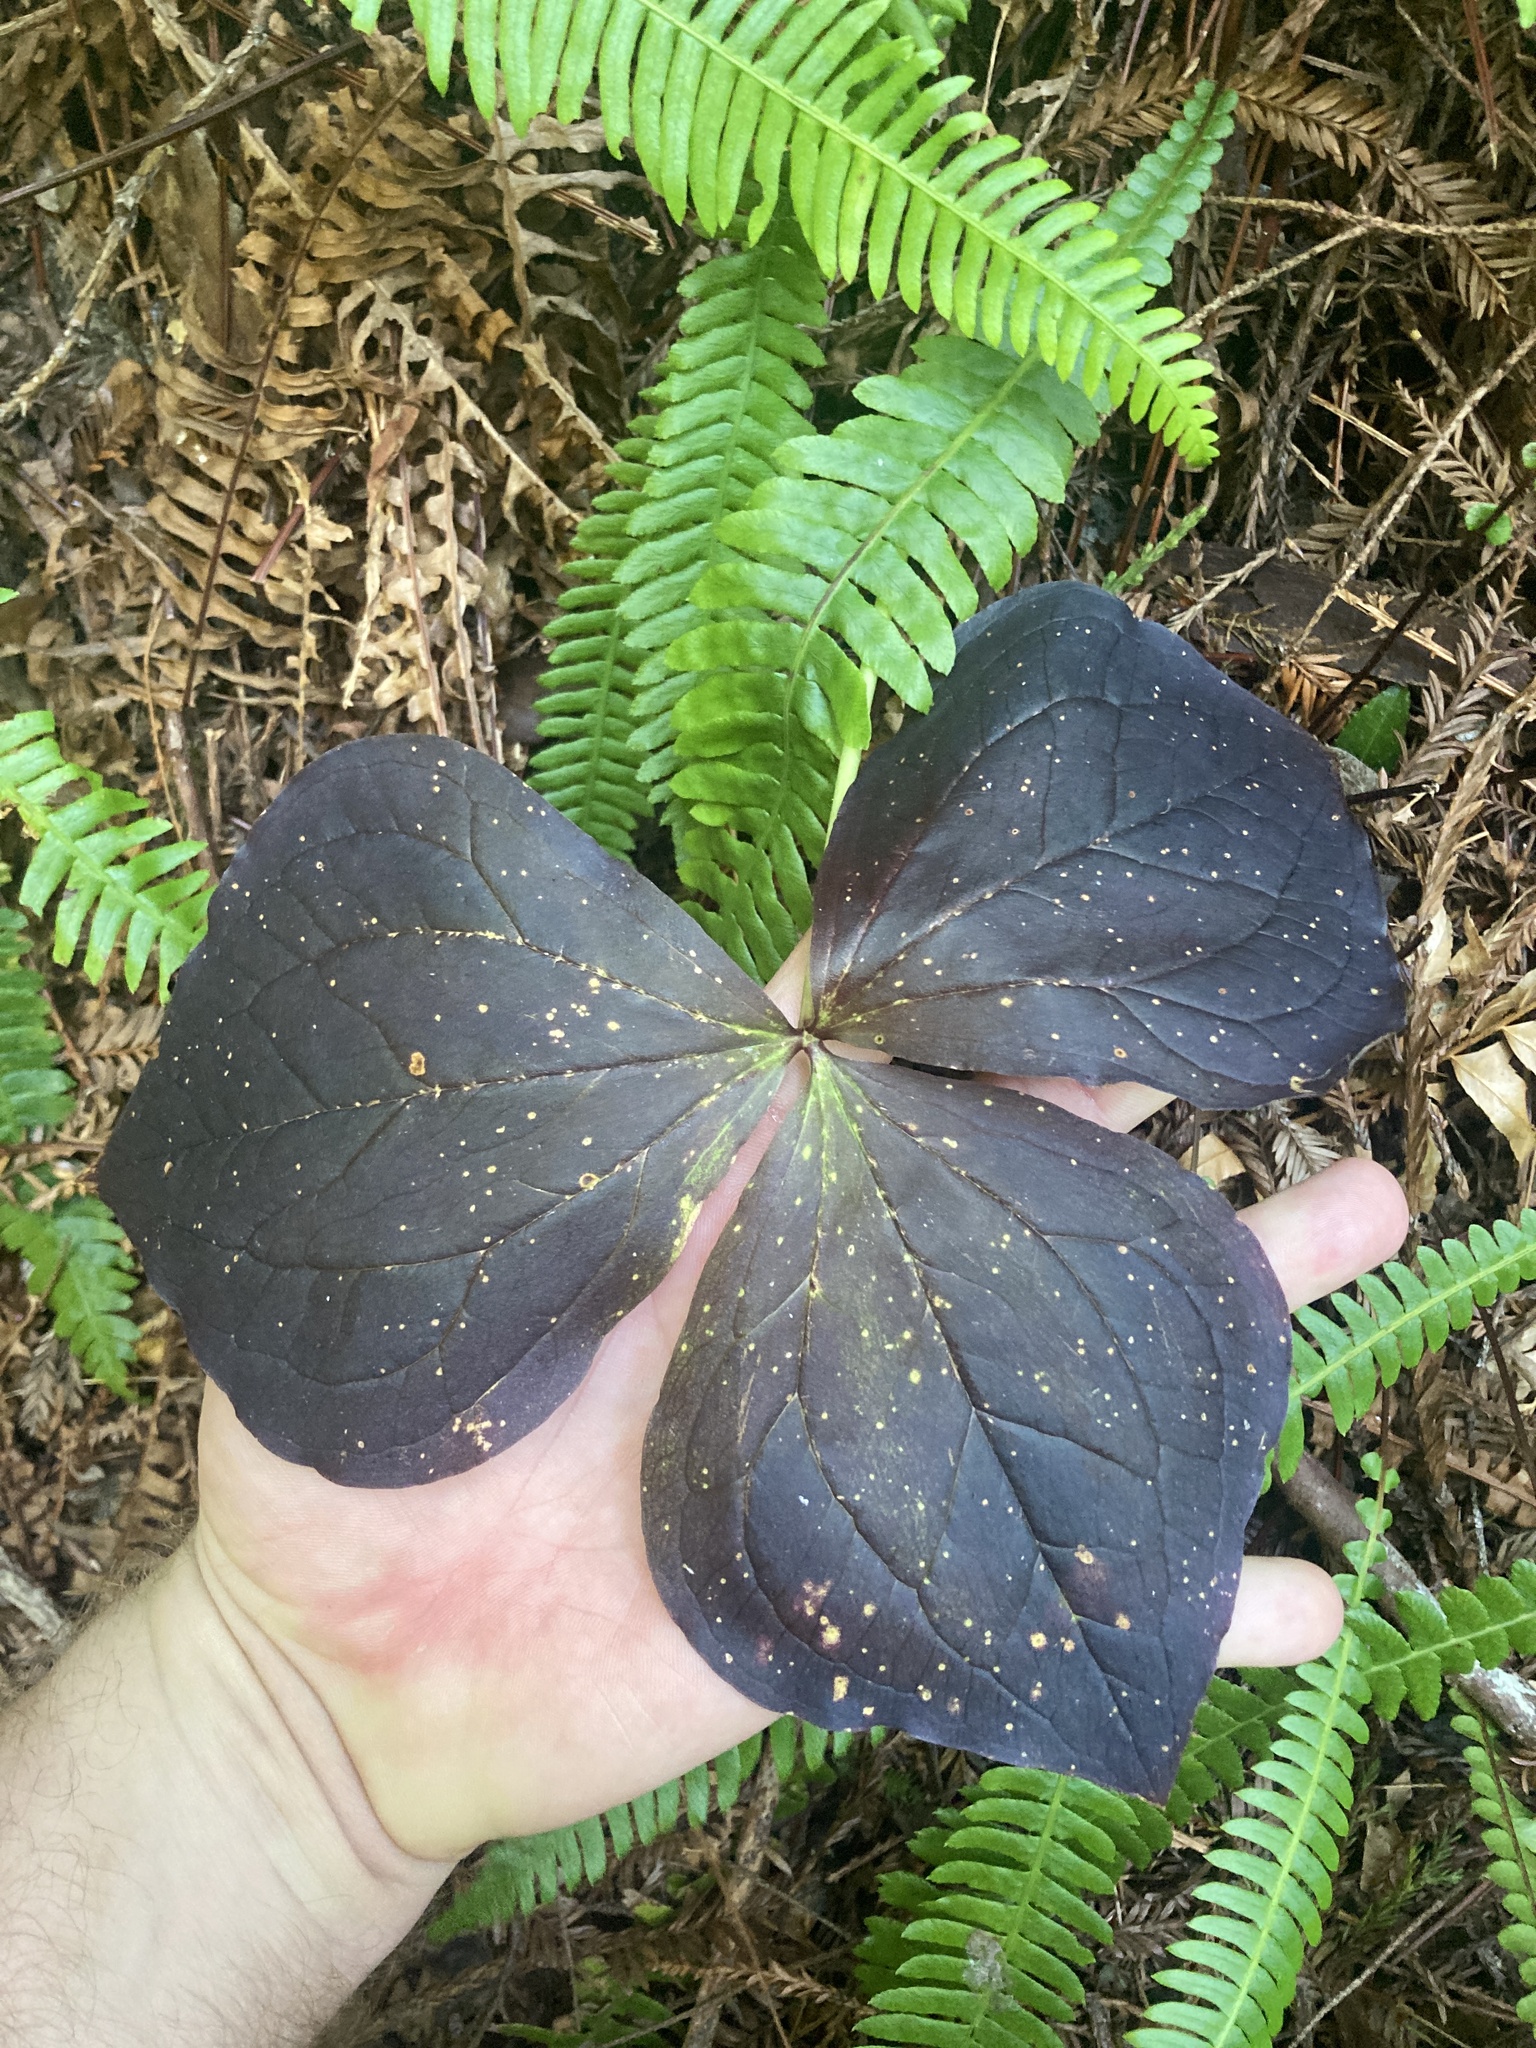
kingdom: Plantae
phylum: Tracheophyta
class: Liliopsida
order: Liliales
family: Melanthiaceae
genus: Trillium
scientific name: Trillium ovatum
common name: Pacific trillium
